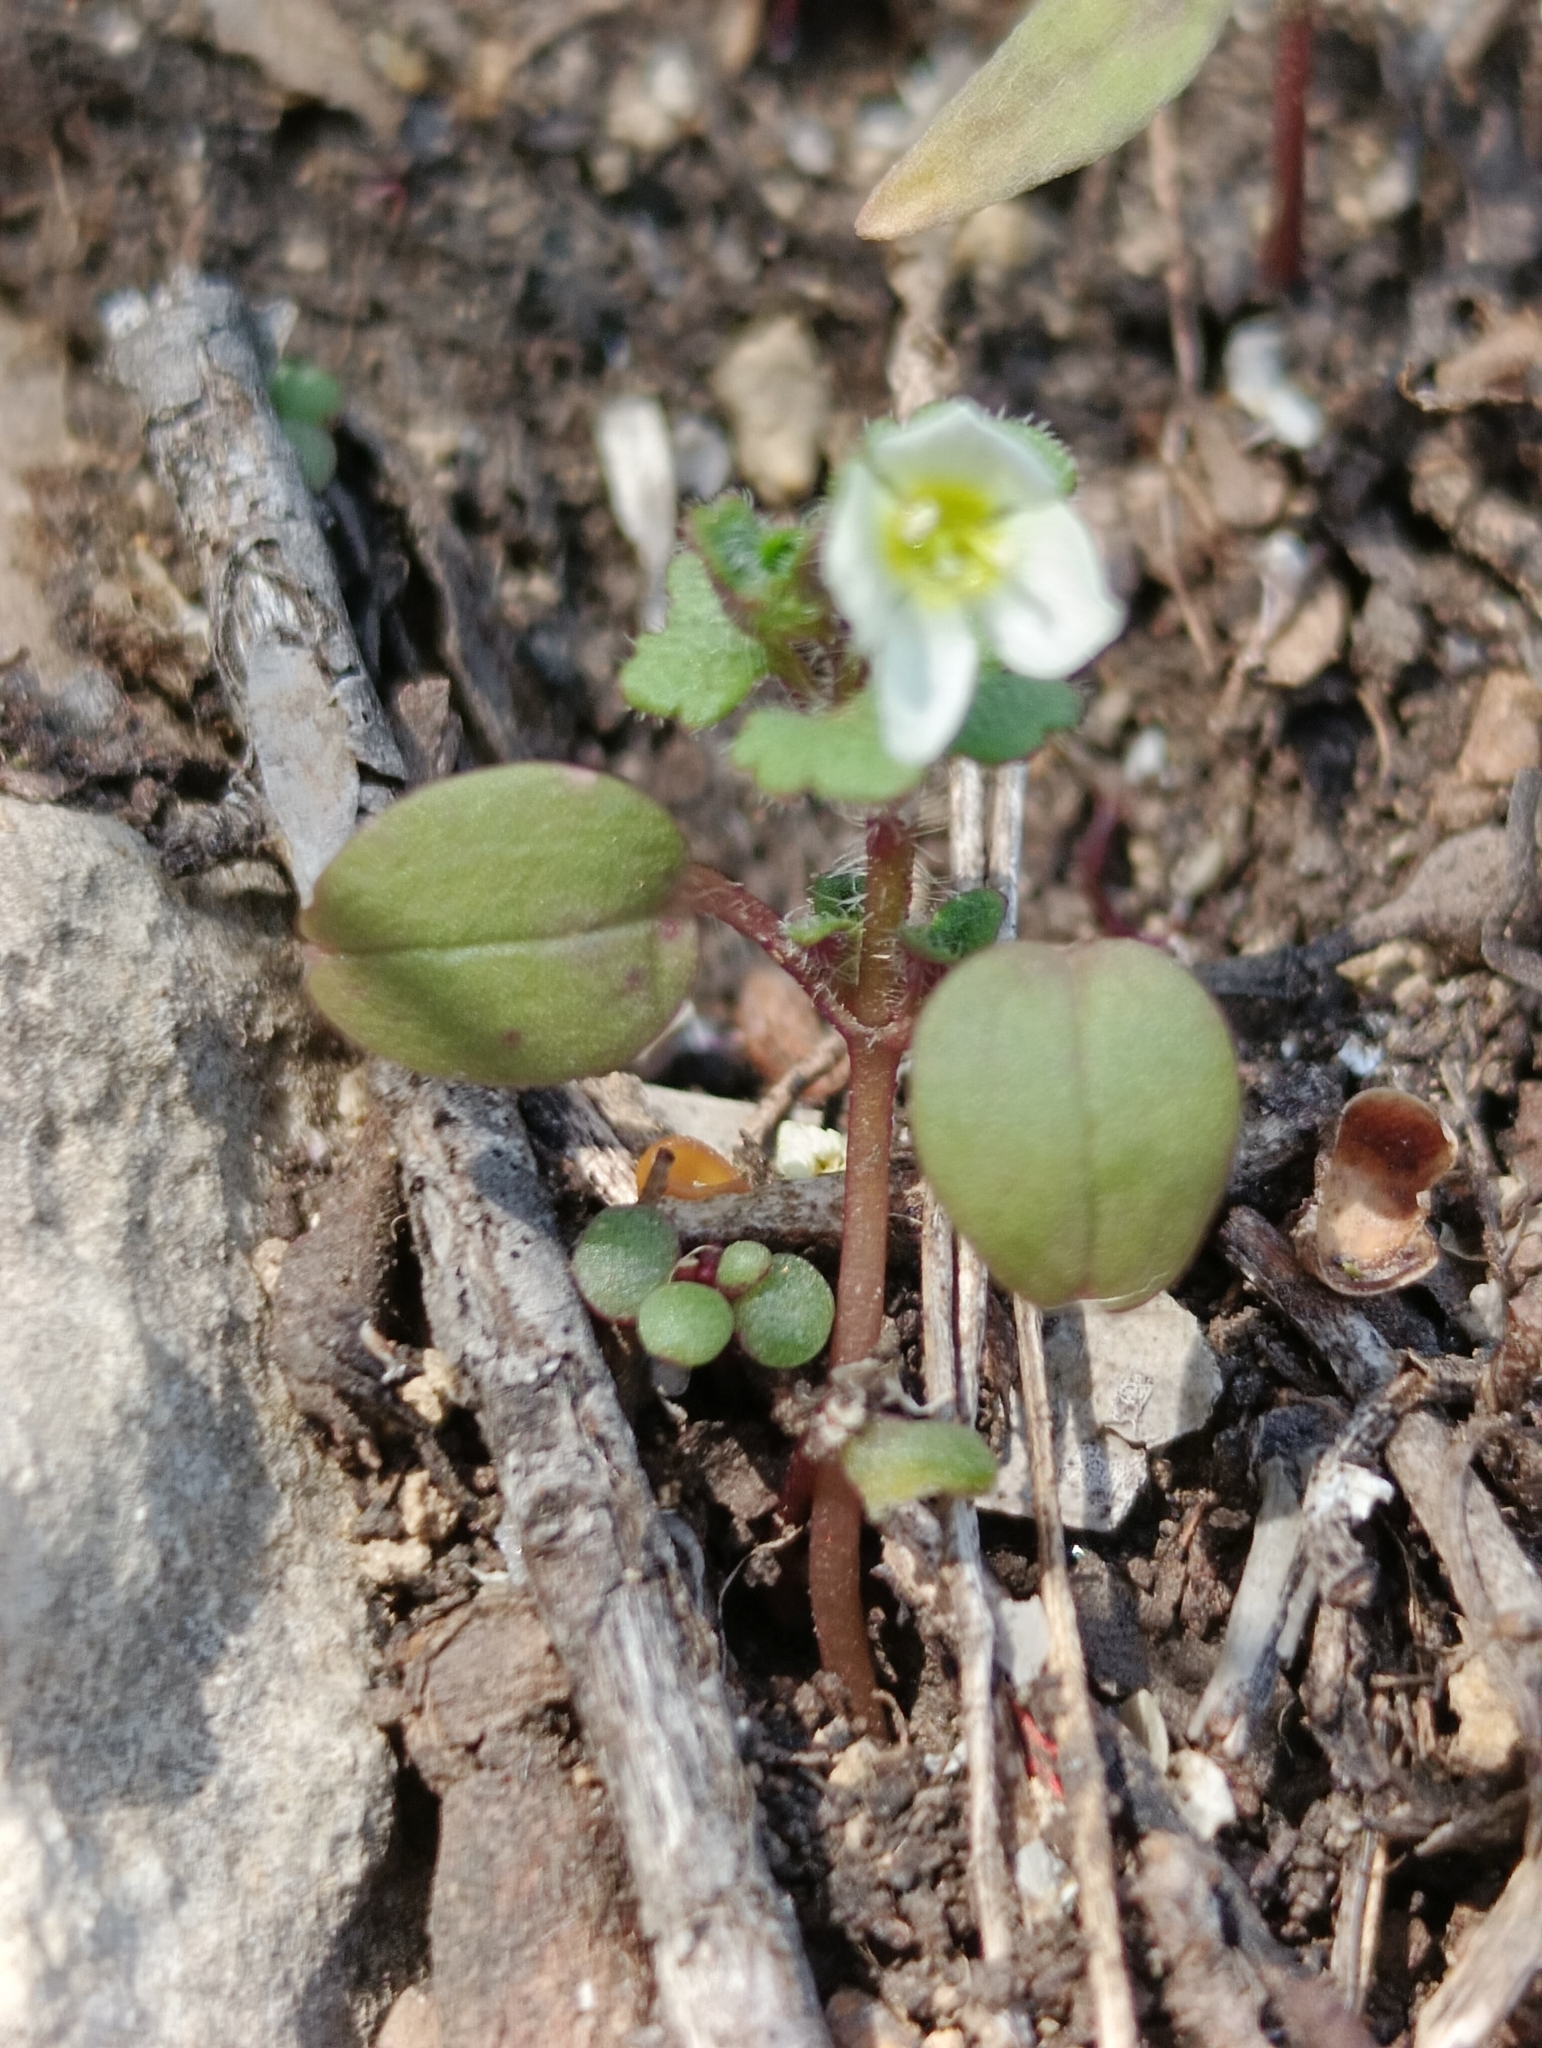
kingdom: Plantae
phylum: Tracheophyta
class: Magnoliopsida
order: Lamiales
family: Plantaginaceae
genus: Veronica
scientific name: Veronica cymbalaria
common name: Pale speedwell
